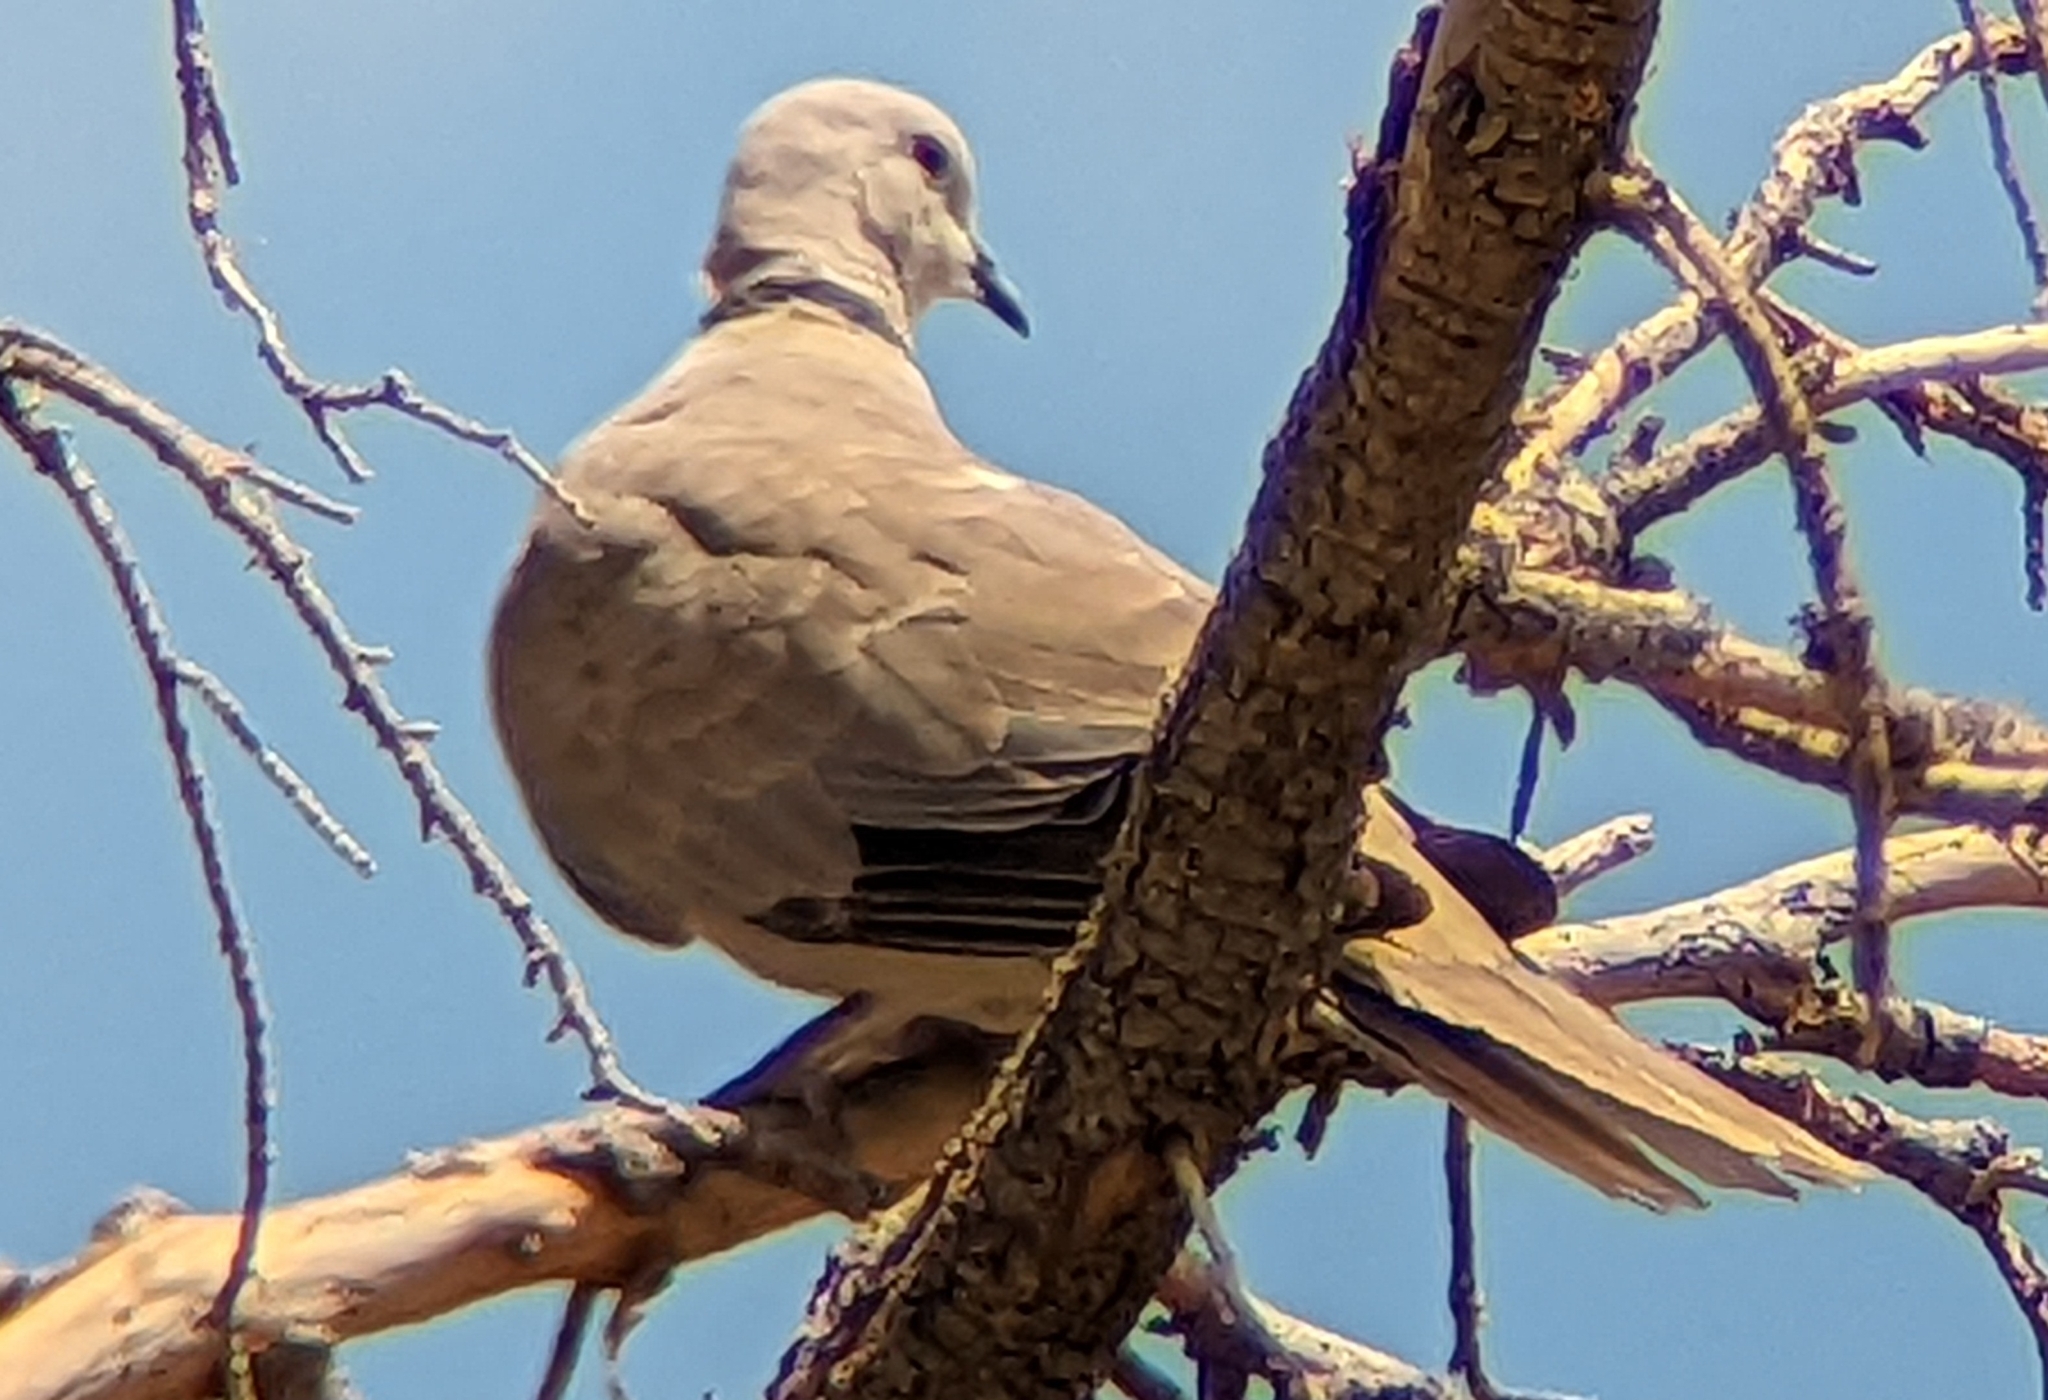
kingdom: Animalia
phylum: Chordata
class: Aves
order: Columbiformes
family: Columbidae
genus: Streptopelia
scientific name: Streptopelia decaocto
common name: Eurasian collared dove
